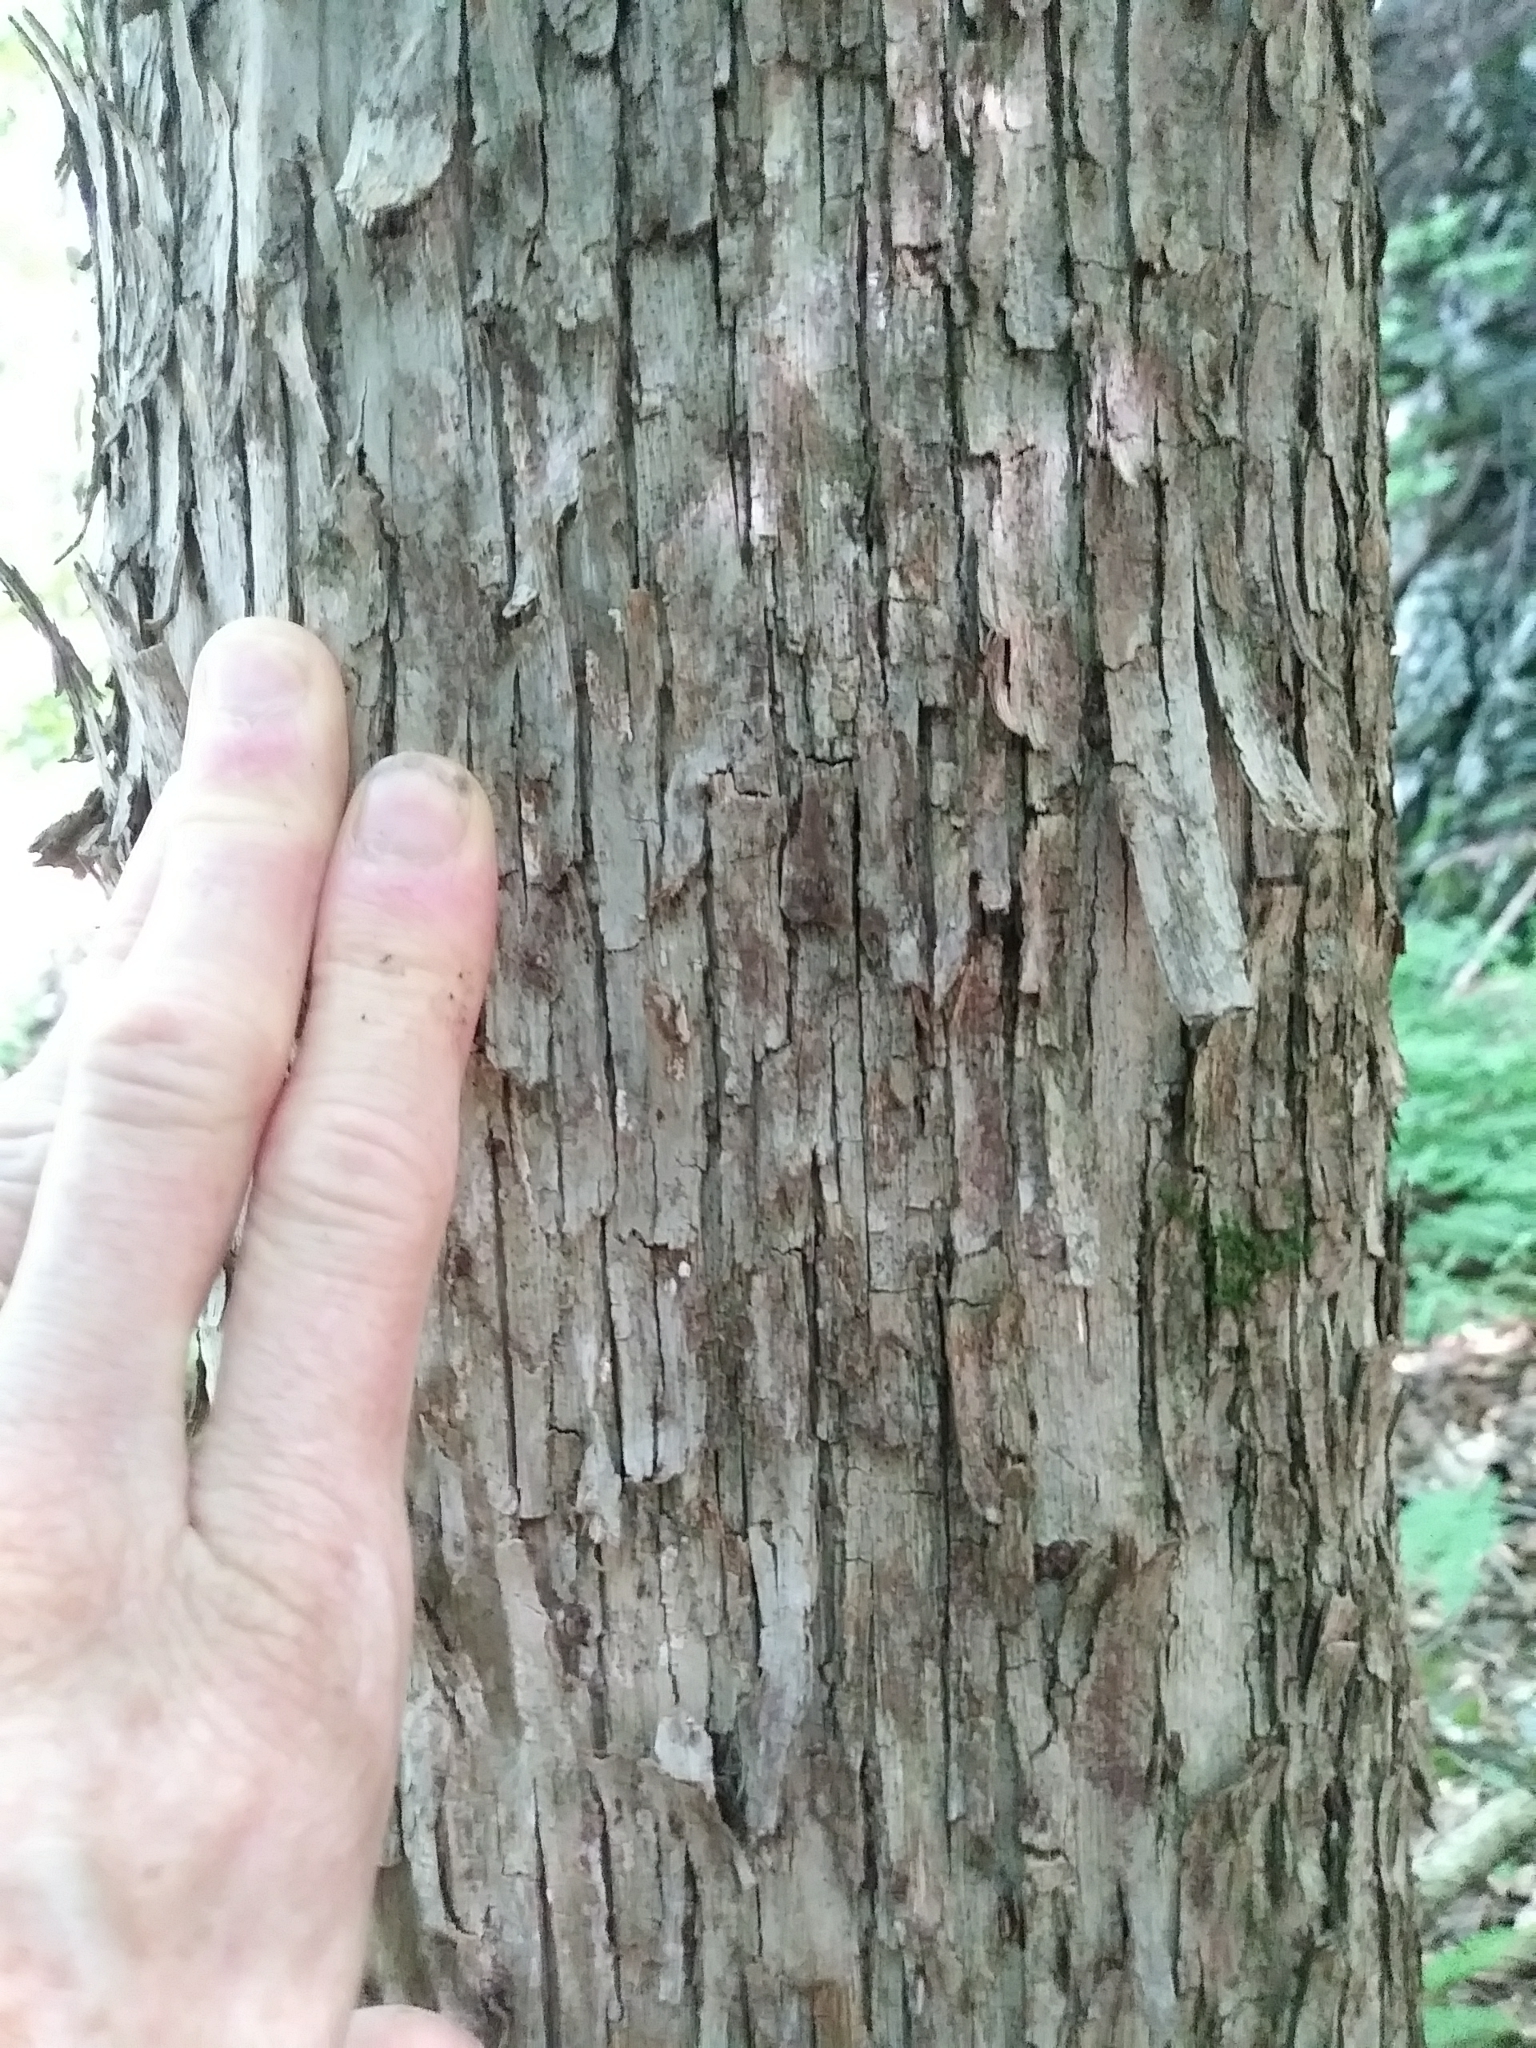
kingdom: Plantae
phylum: Tracheophyta
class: Magnoliopsida
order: Fagales
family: Betulaceae
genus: Ostrya
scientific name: Ostrya virginiana
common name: Ironwood
